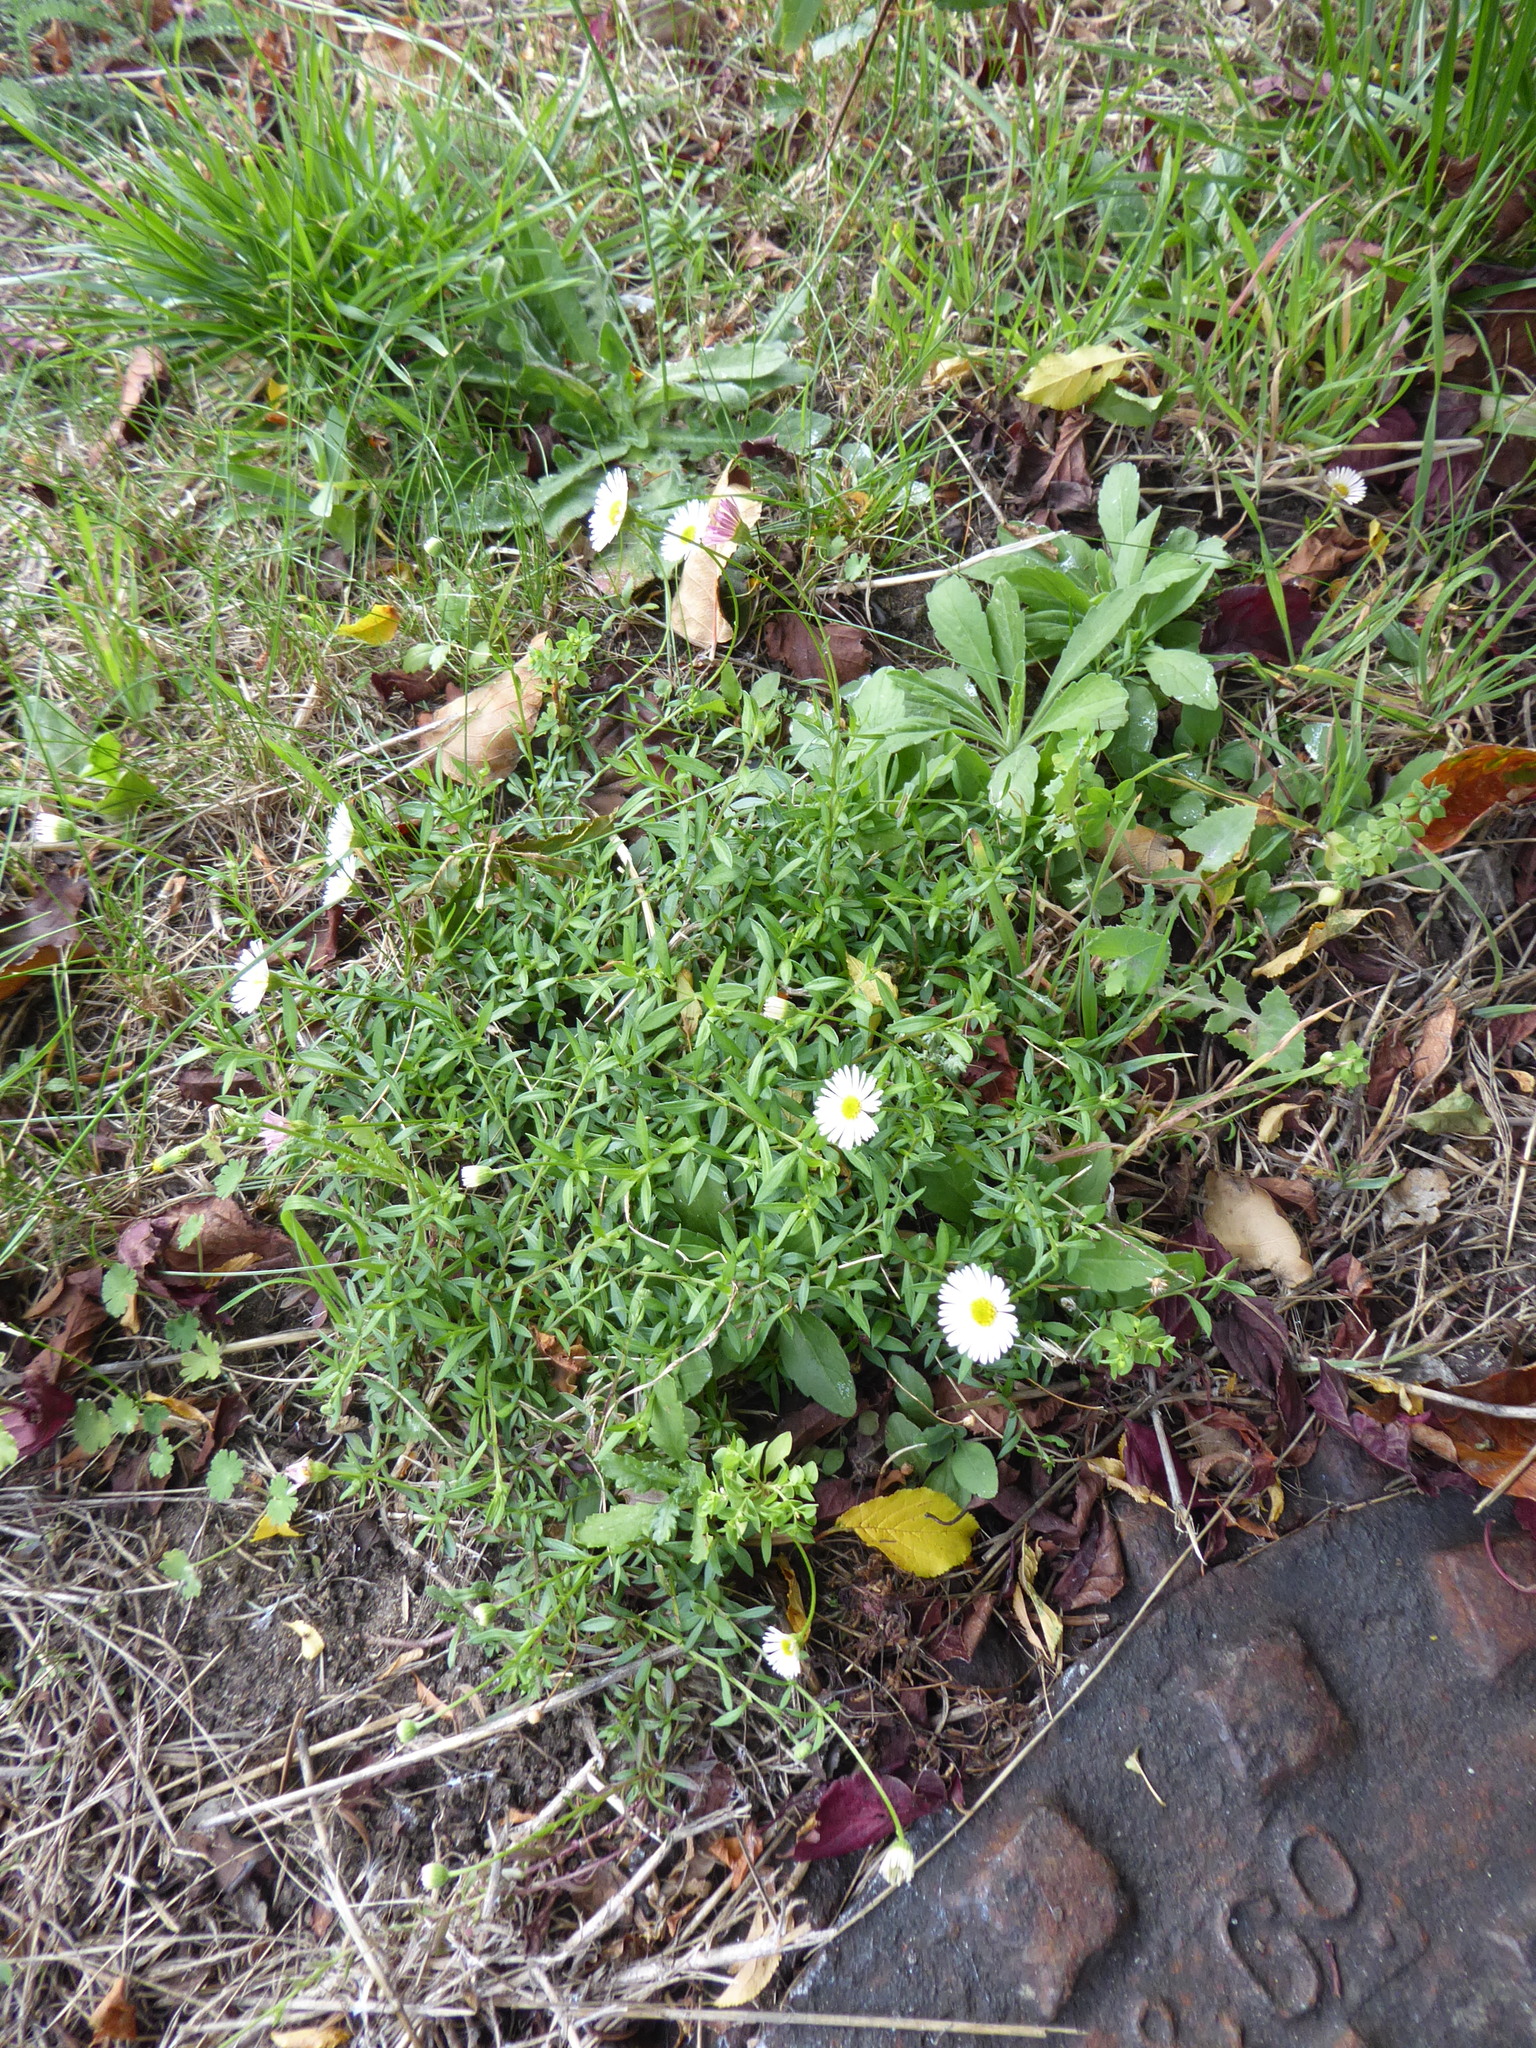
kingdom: Plantae
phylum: Tracheophyta
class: Magnoliopsida
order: Asterales
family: Asteraceae
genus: Erigeron
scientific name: Erigeron karvinskianus
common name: Mexican fleabane
